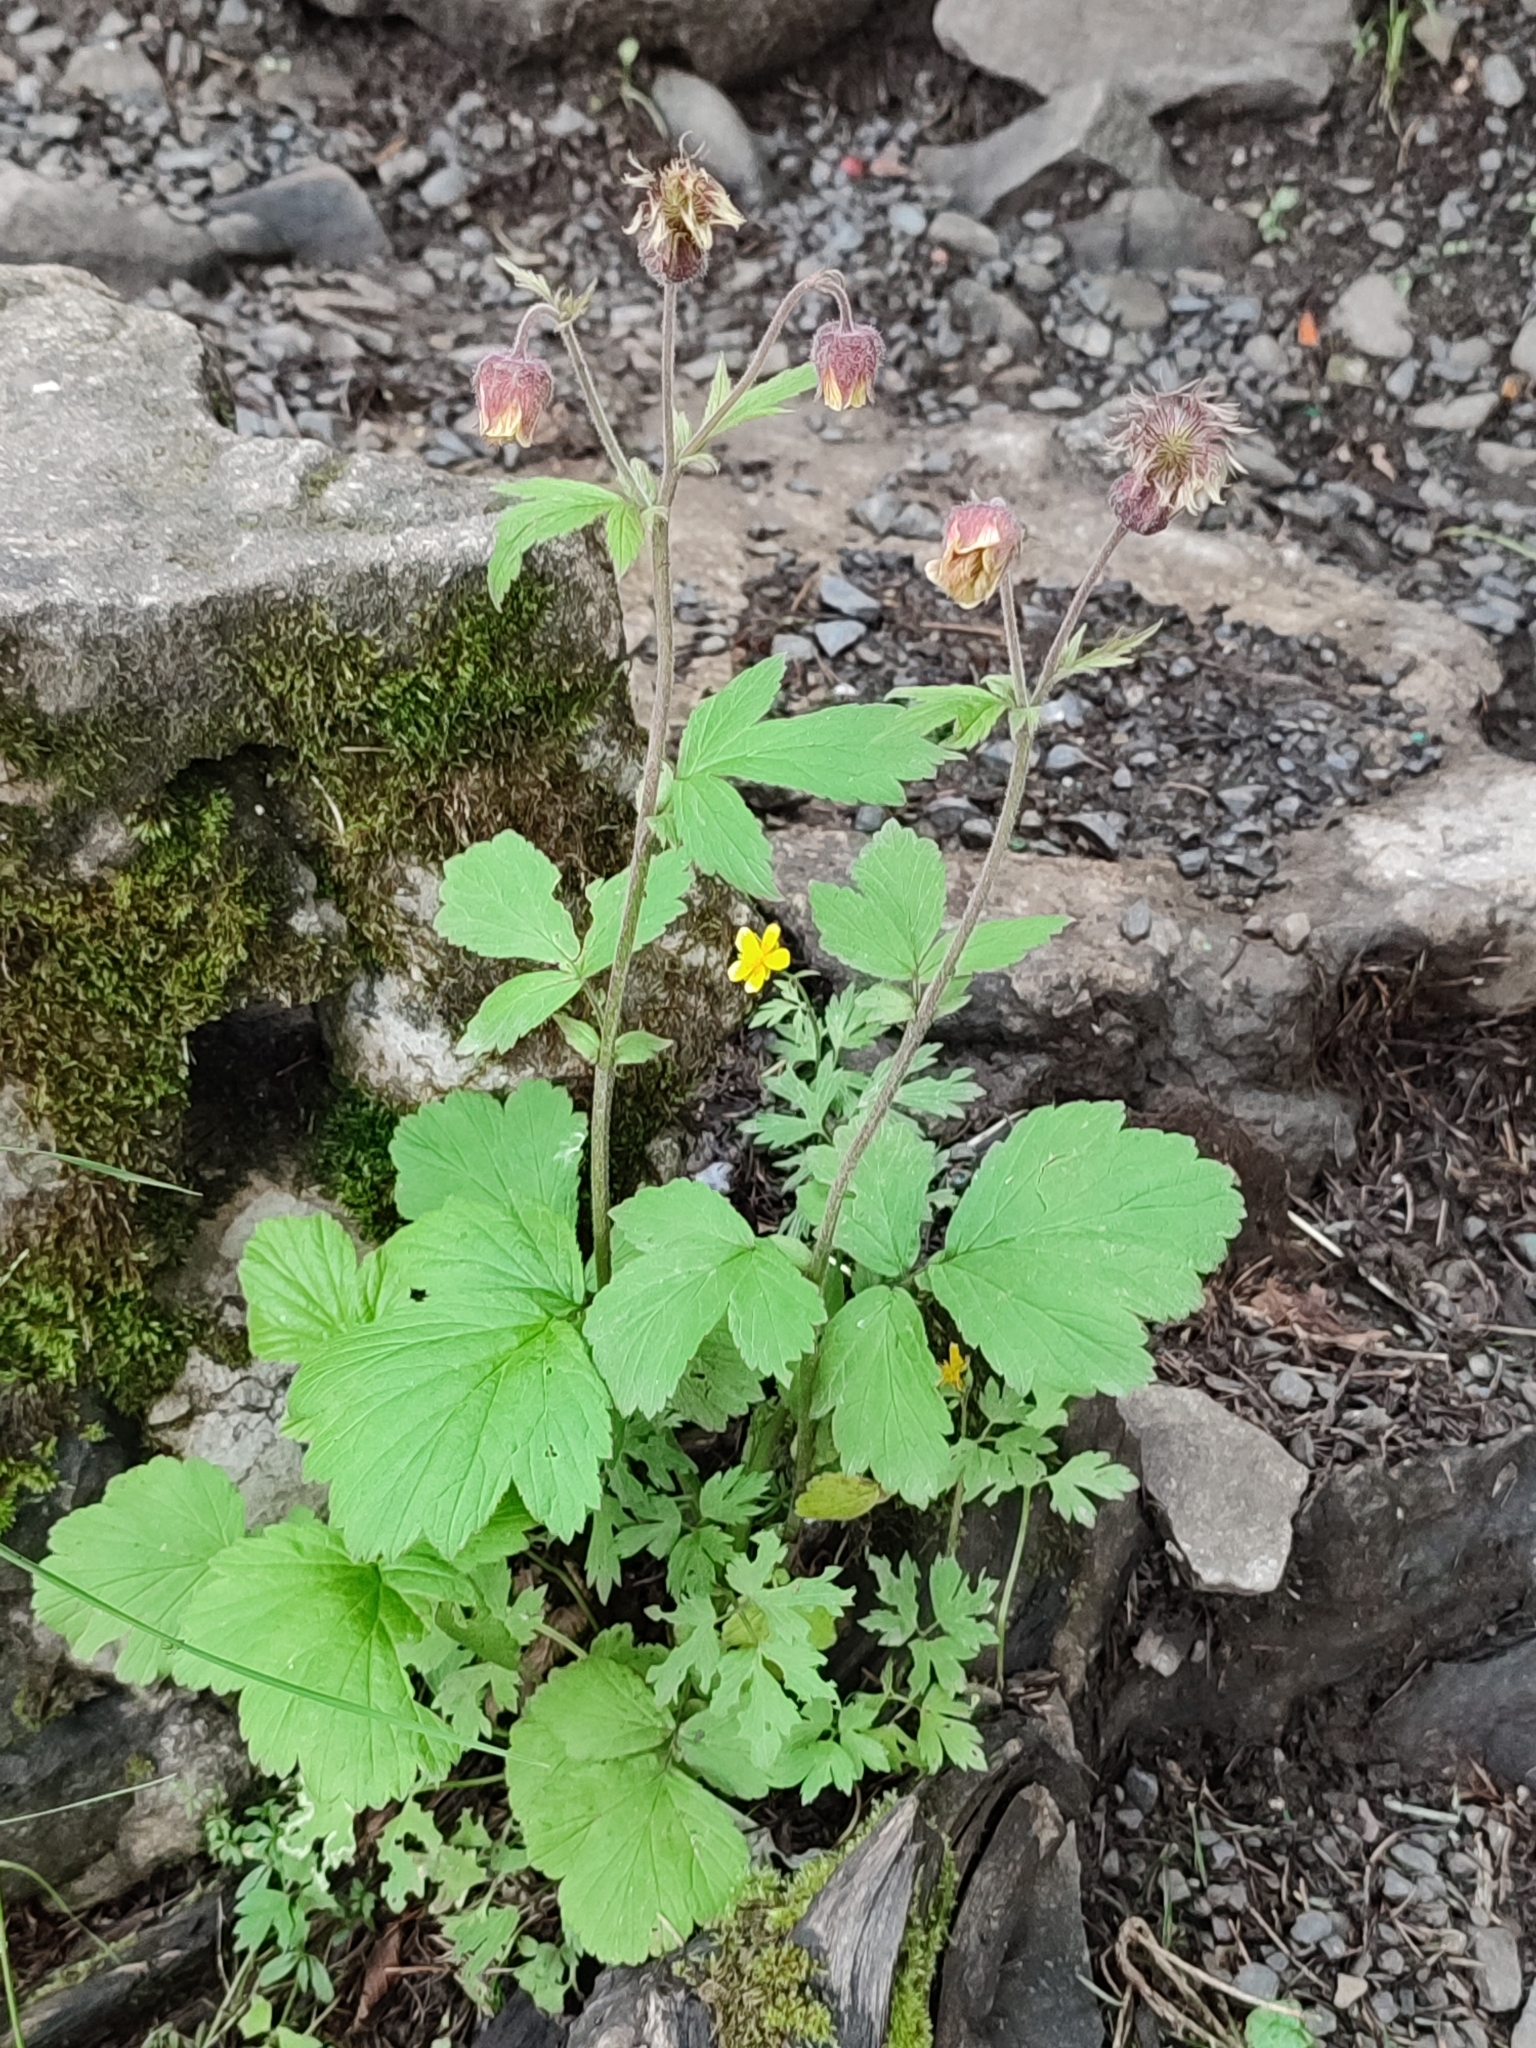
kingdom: Plantae
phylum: Tracheophyta
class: Magnoliopsida
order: Rosales
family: Rosaceae
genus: Geum
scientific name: Geum rivale
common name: Water avens
